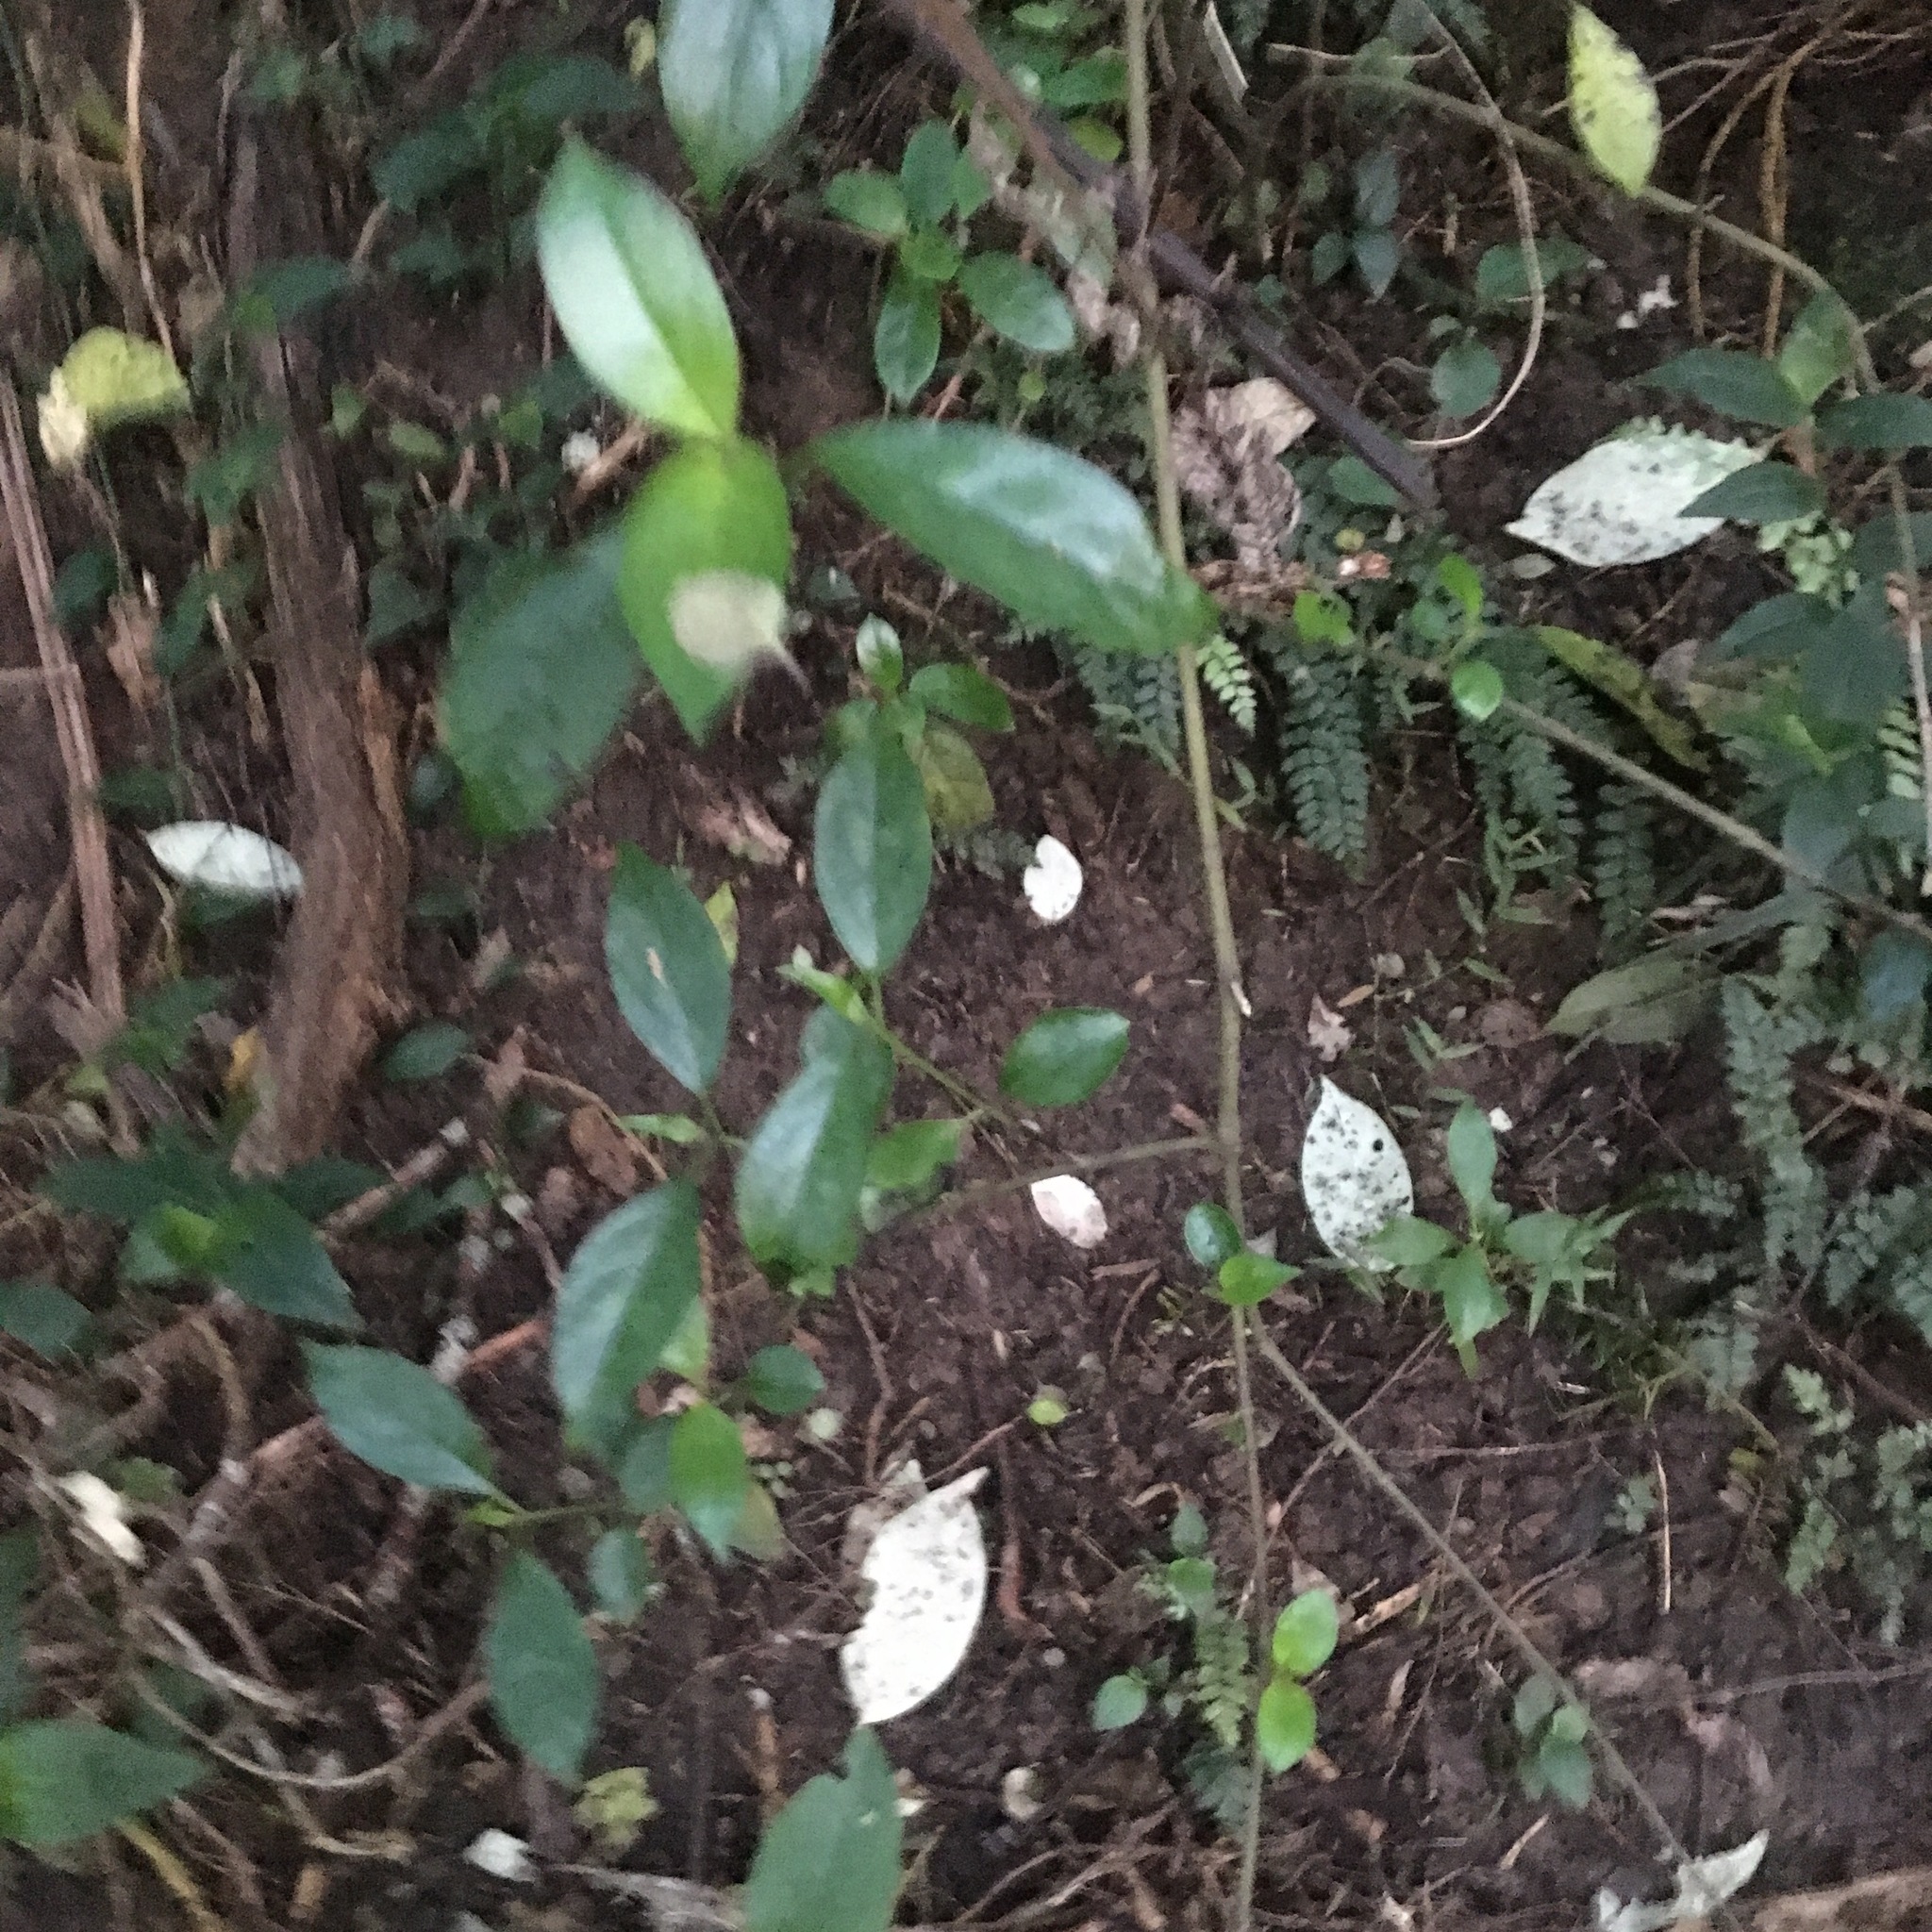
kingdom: Plantae
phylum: Tracheophyta
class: Magnoliopsida
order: Gentianales
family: Loganiaceae
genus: Geniostoma
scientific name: Geniostoma ligustrifolium
